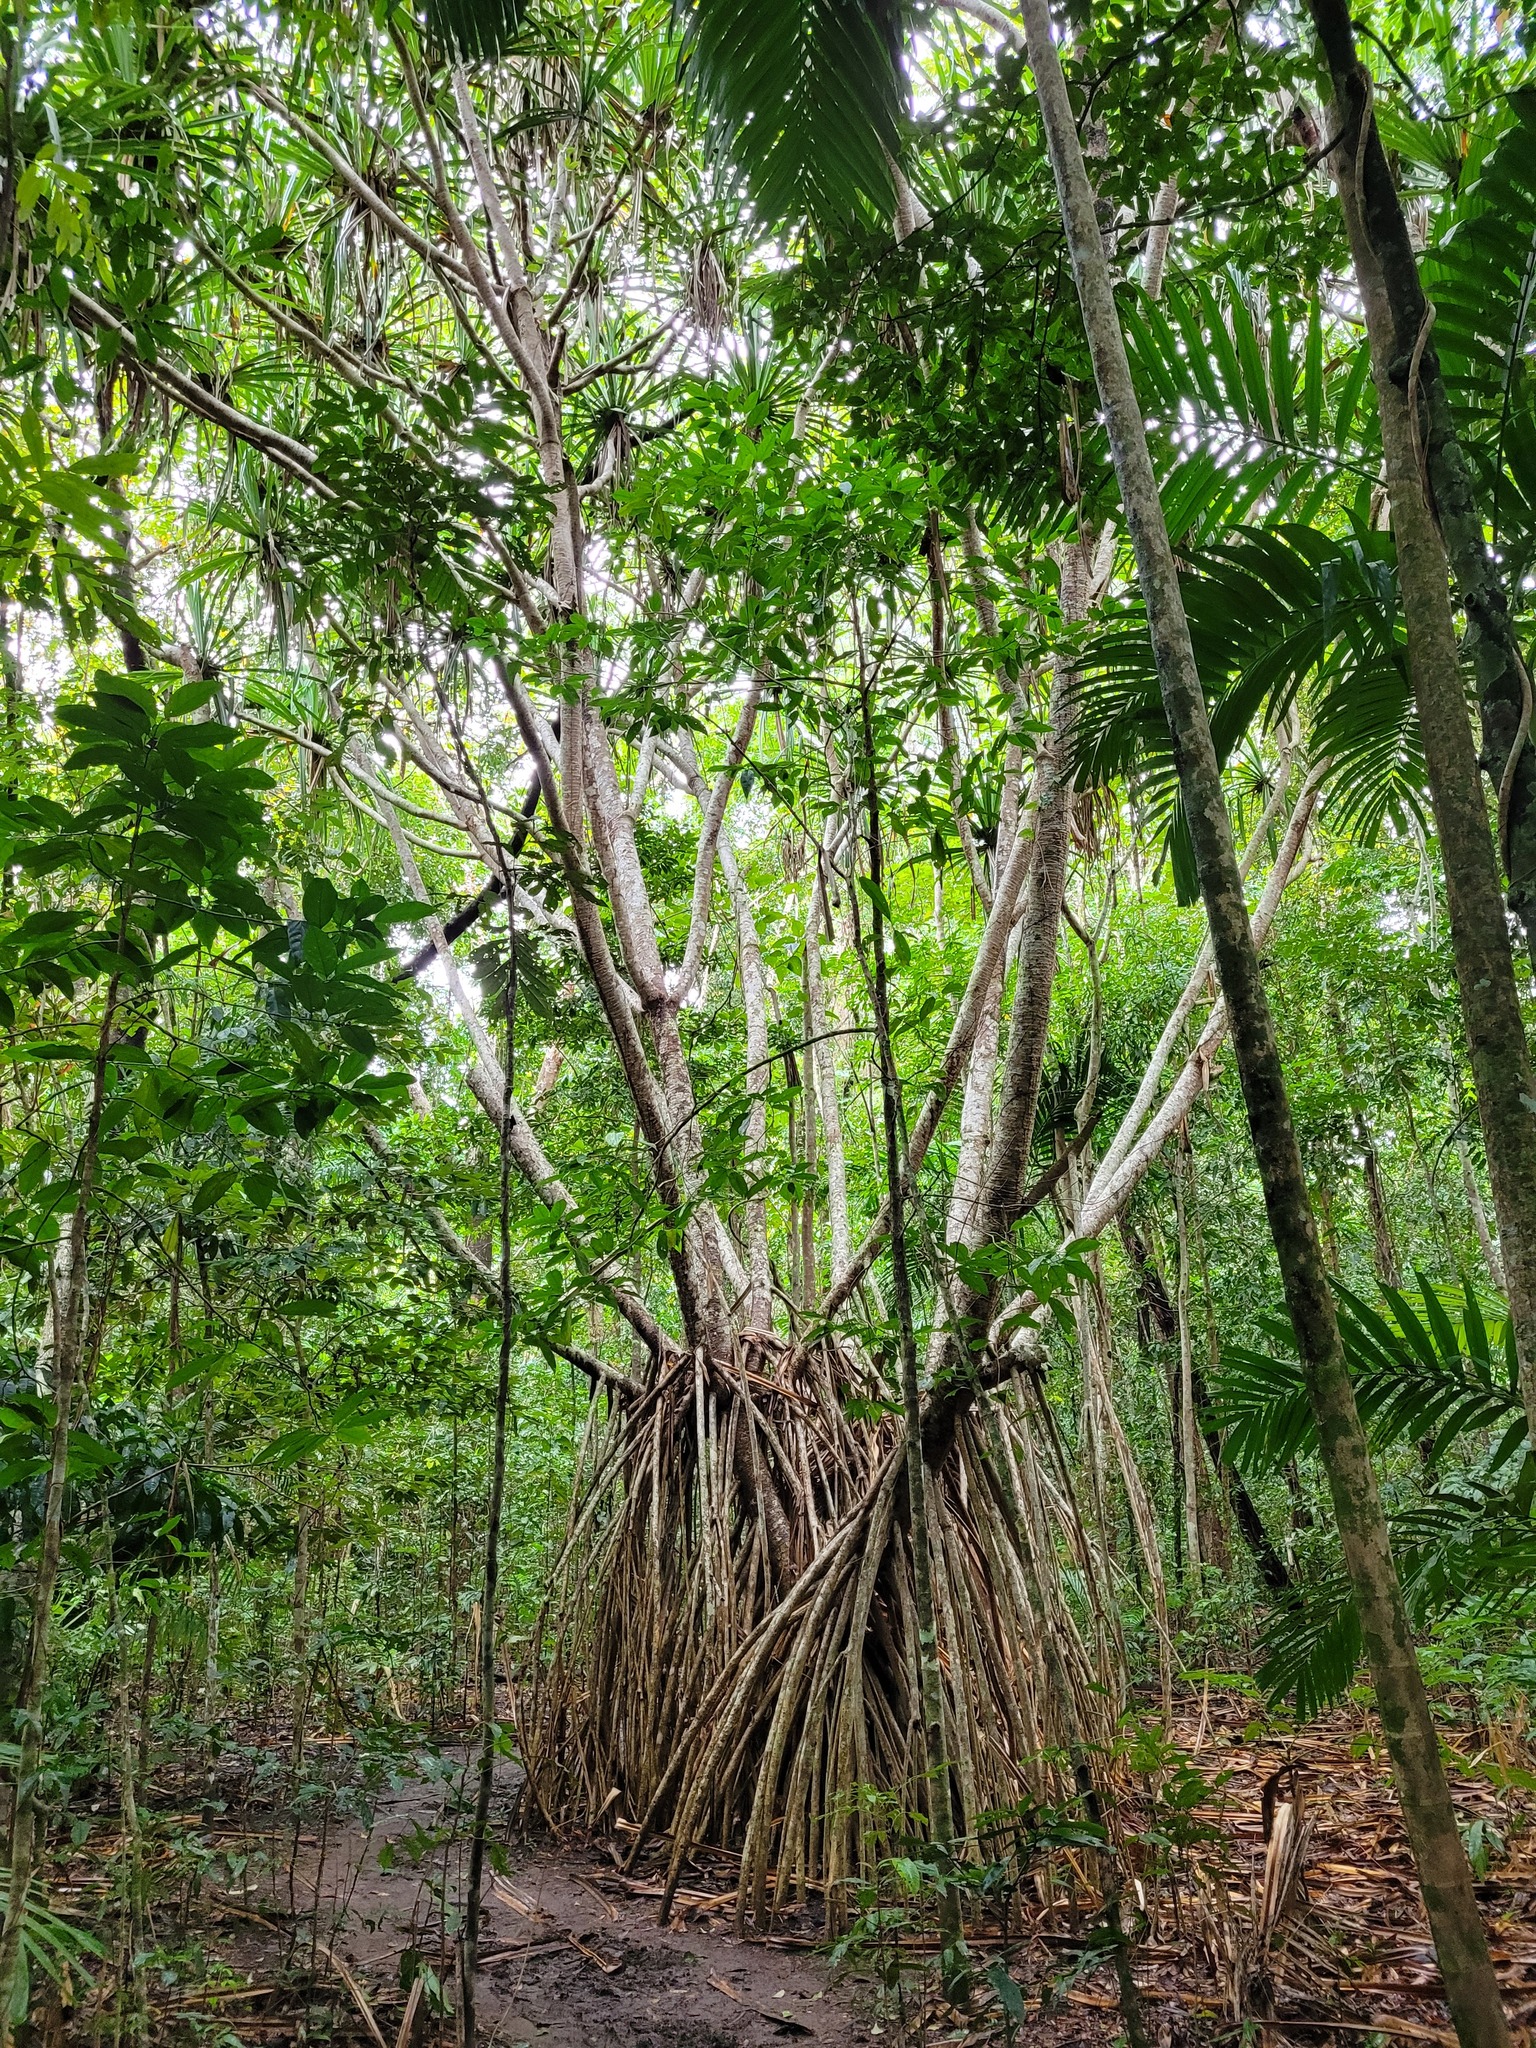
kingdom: Plantae
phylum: Tracheophyta
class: Liliopsida
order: Pandanales
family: Pandanaceae
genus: Pandanus
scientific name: Pandanus tectorius
